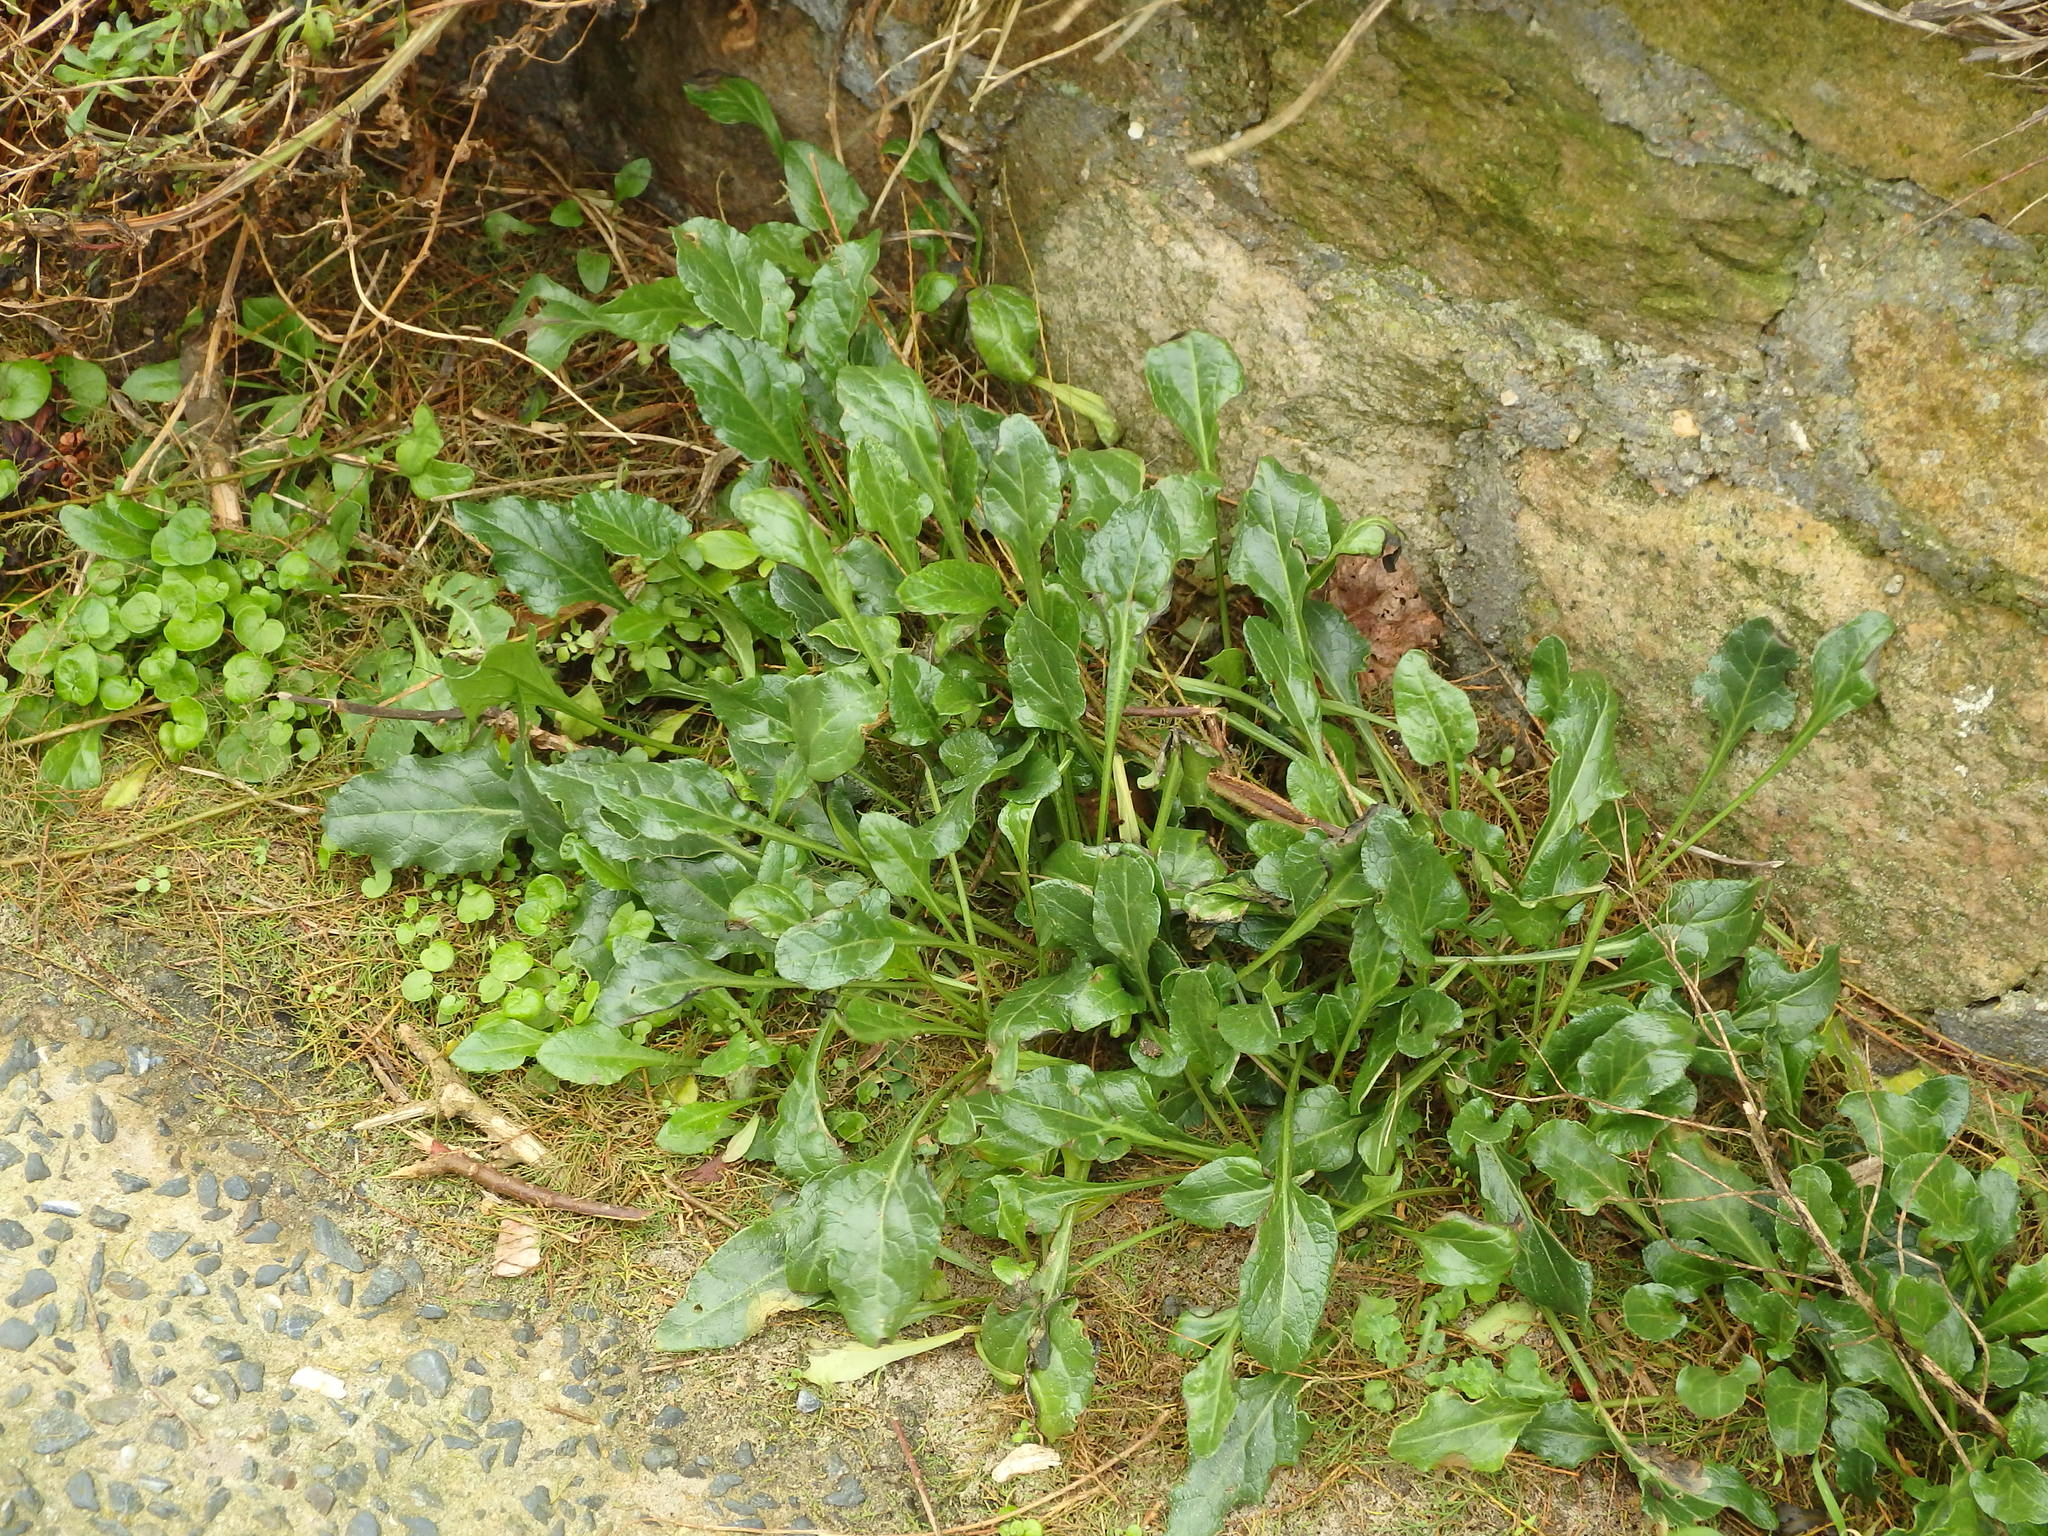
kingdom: Plantae
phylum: Tracheophyta
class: Magnoliopsida
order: Caryophyllales
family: Amaranthaceae
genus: Beta
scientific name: Beta vulgaris
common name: Beet
